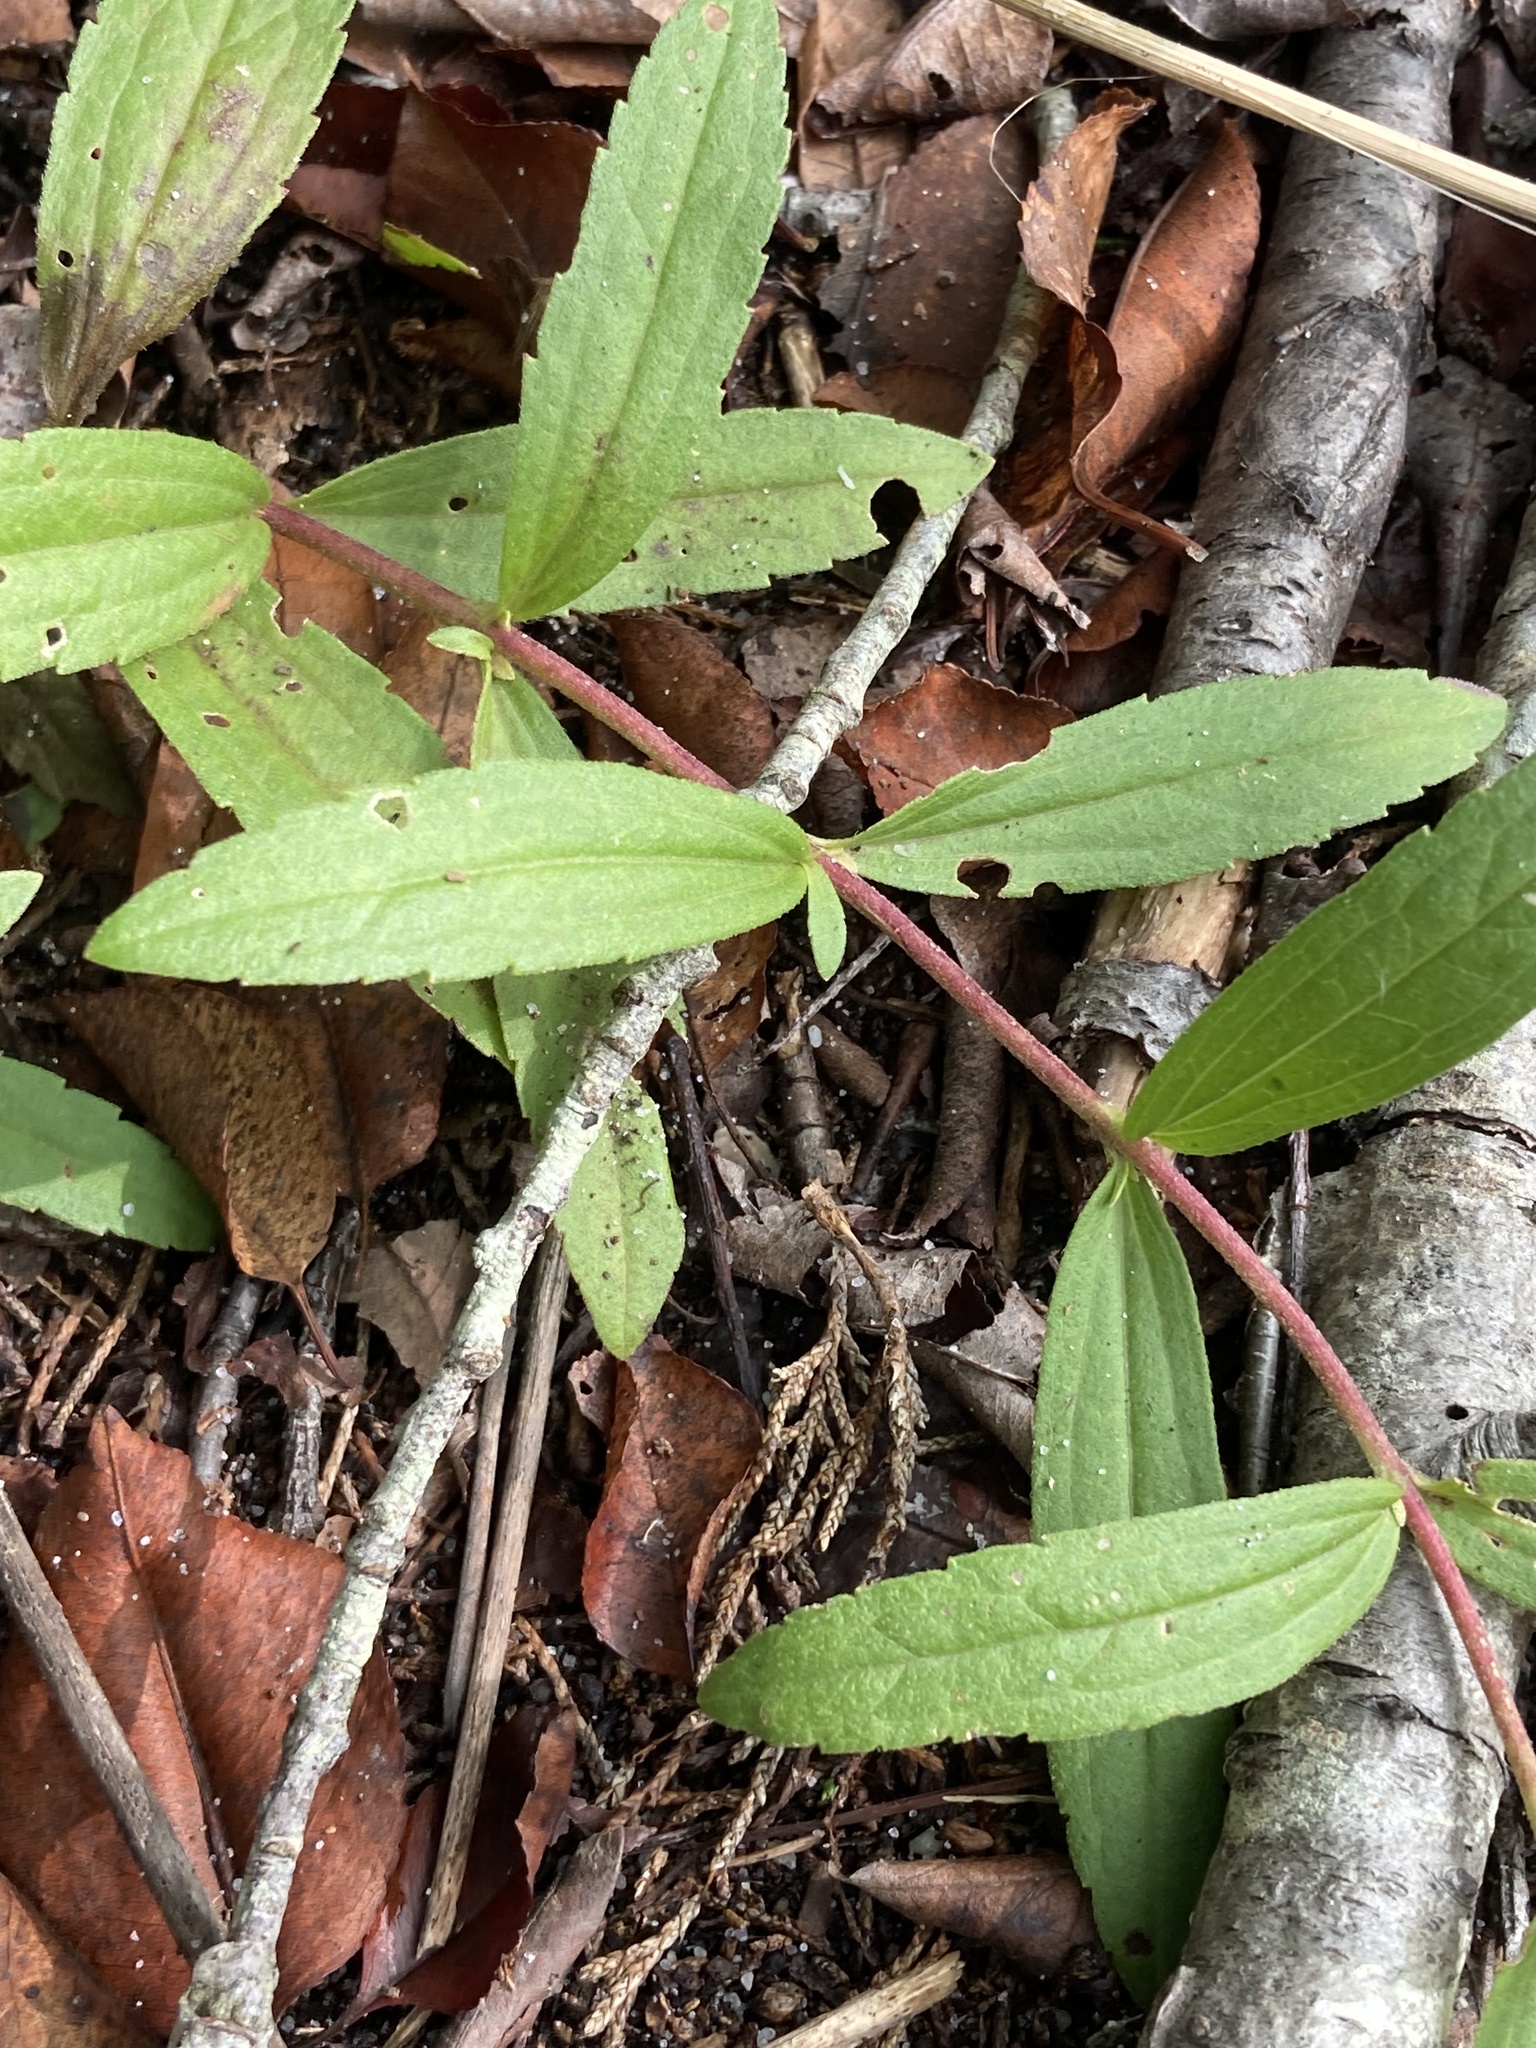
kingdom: Plantae
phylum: Tracheophyta
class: Magnoliopsida
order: Asterales
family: Asteraceae
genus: Eupatorium
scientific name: Eupatorium subvenosum
